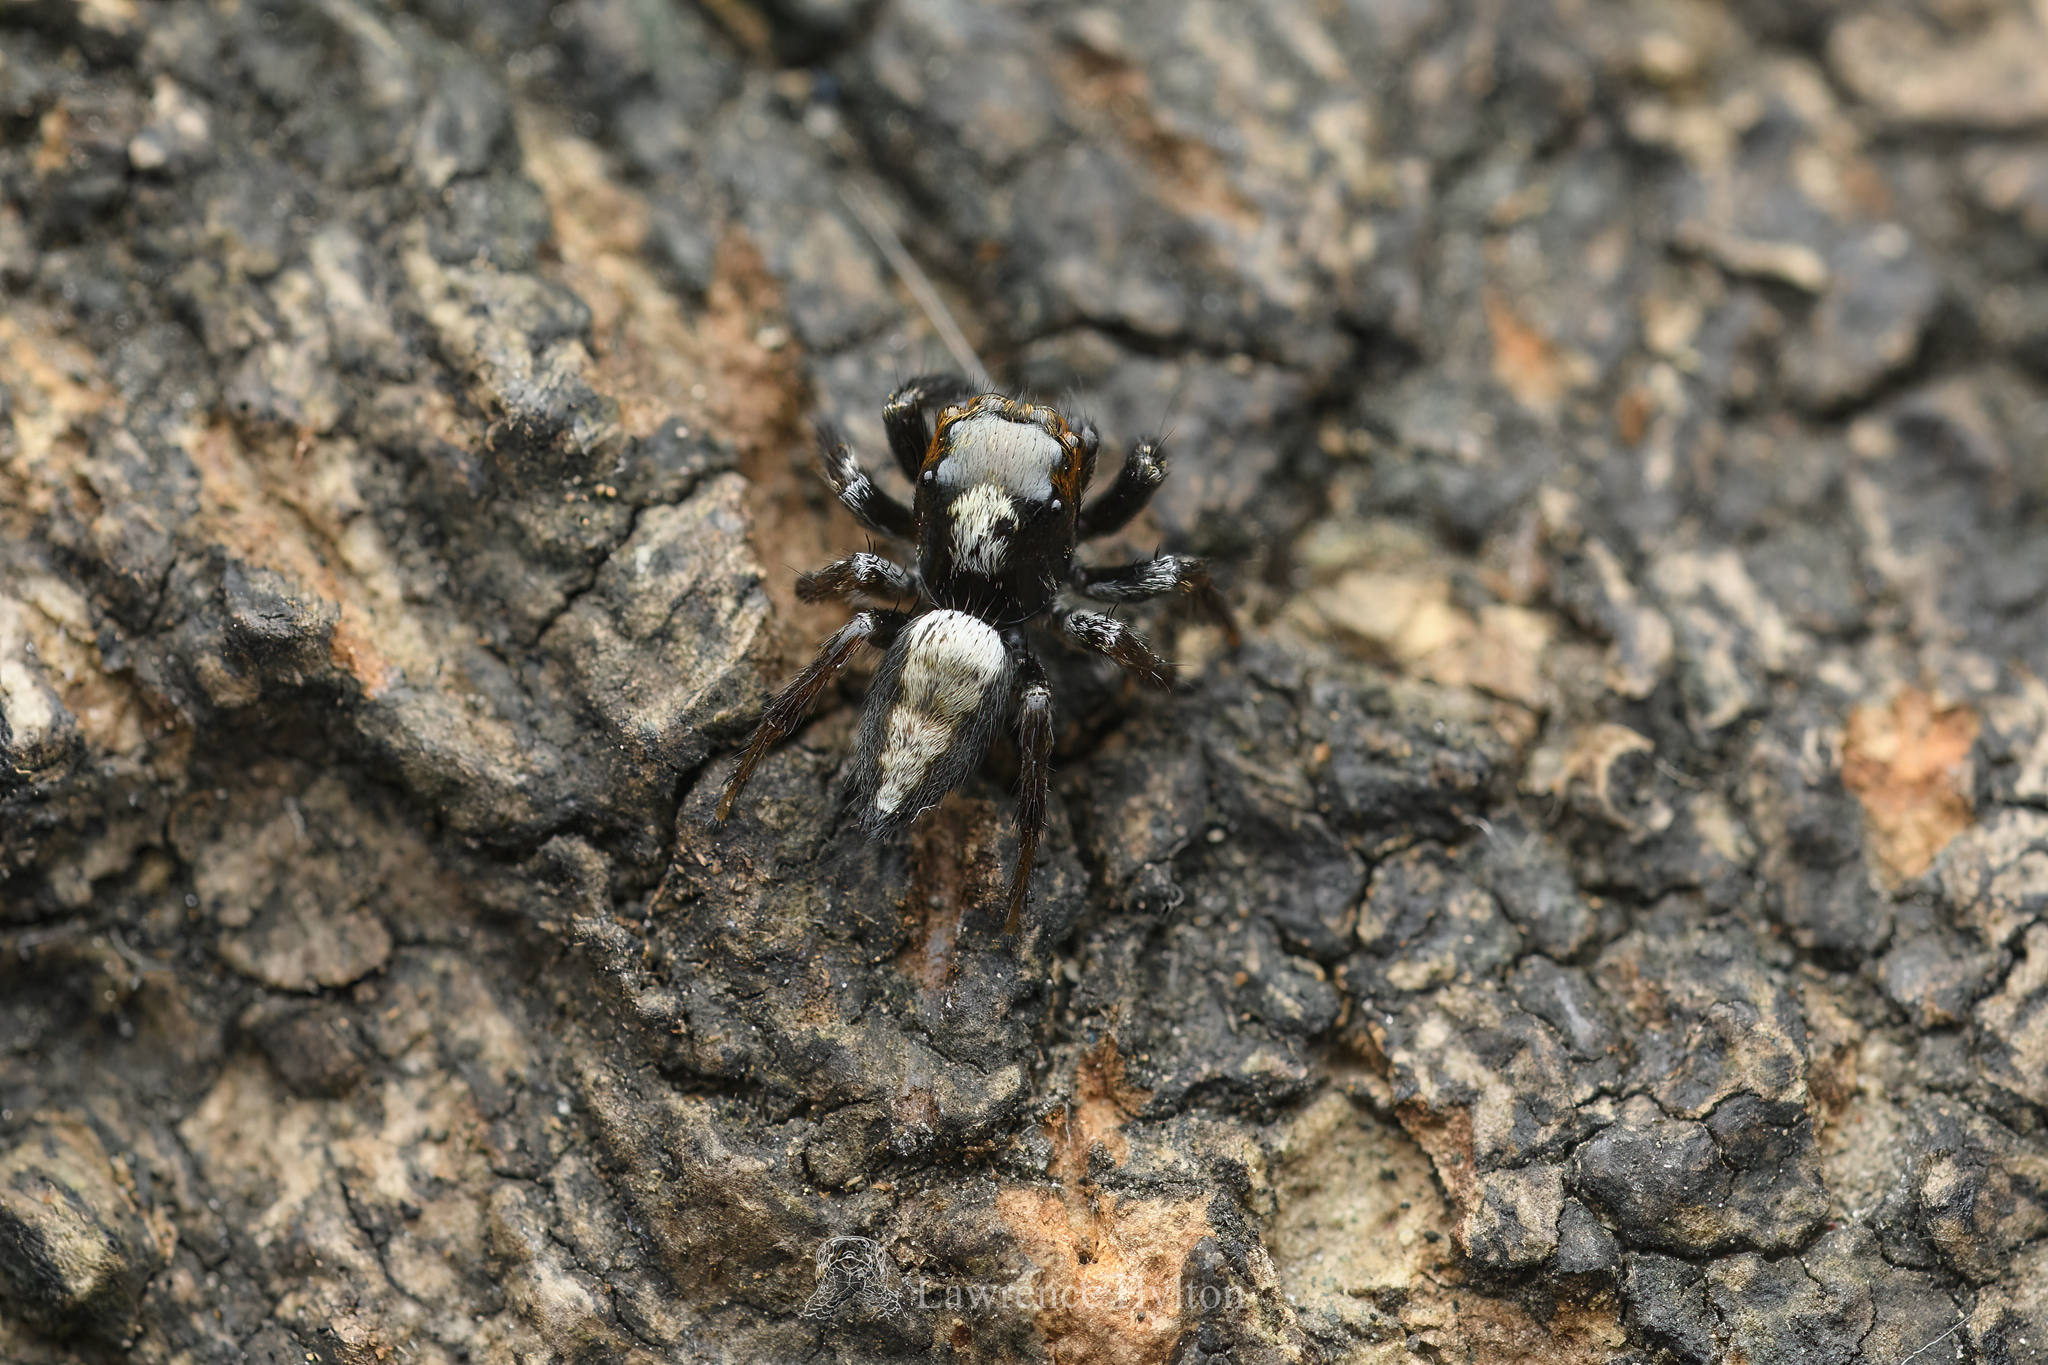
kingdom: Animalia
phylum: Arthropoda
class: Arachnida
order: Araneae
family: Salticidae
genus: Ptocasius
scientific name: Ptocasius strupifer
